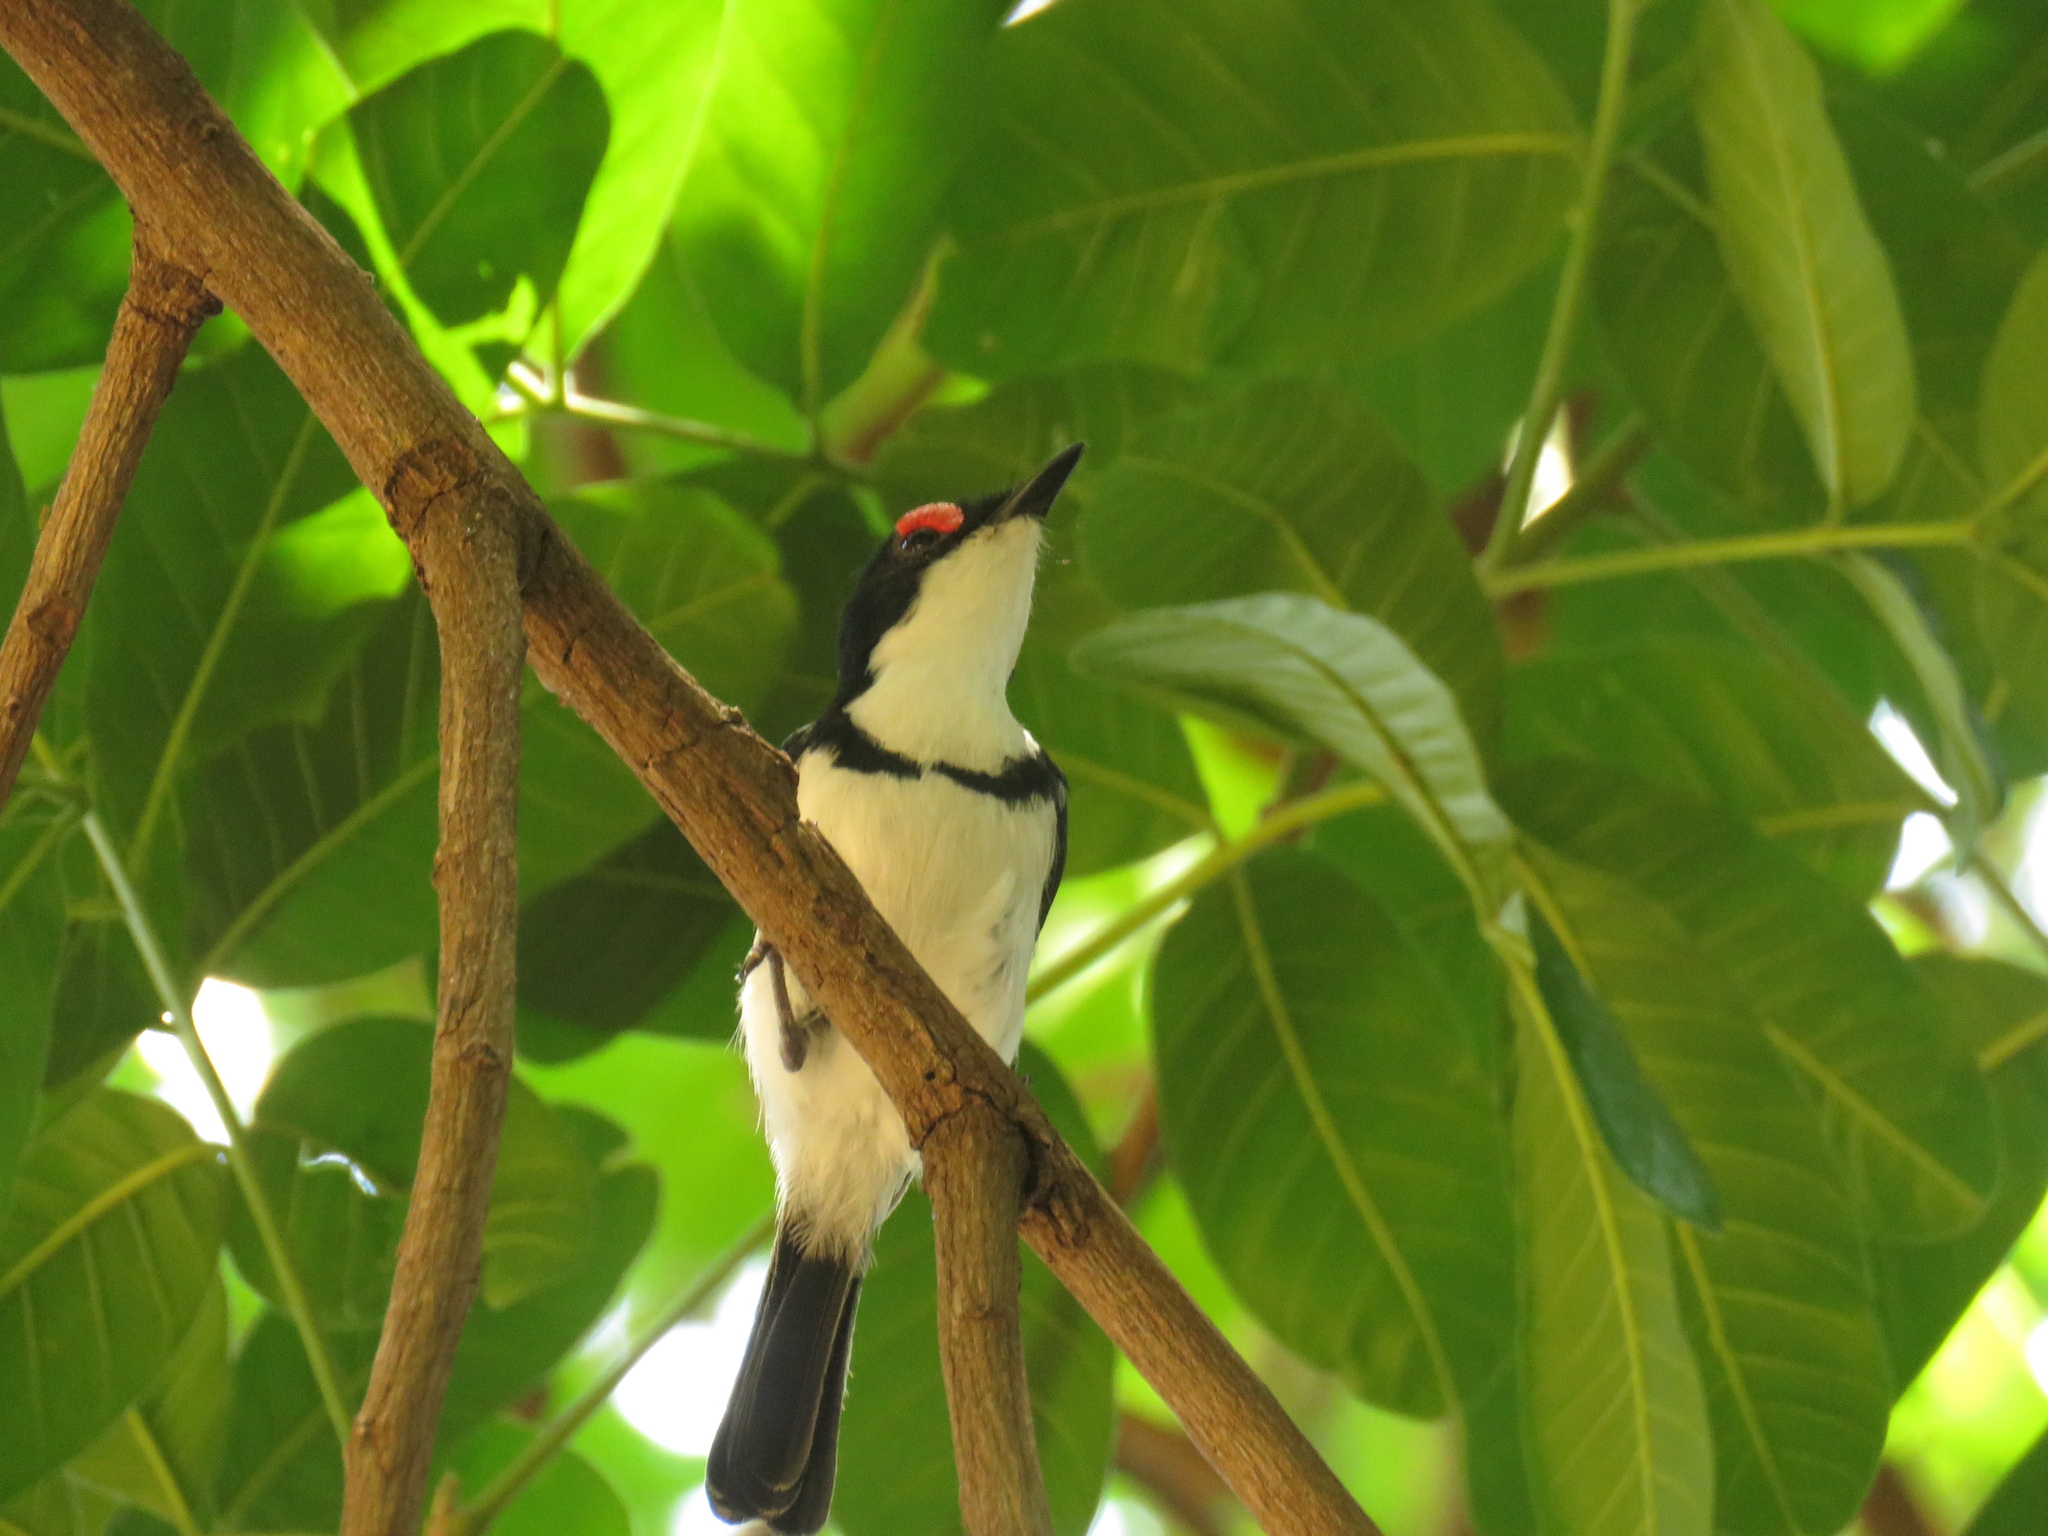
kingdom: Animalia
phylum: Chordata
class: Aves
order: Passeriformes
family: Platysteiridae
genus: Platysteira
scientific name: Platysteira peltata
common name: Black-throated wattle-eye
